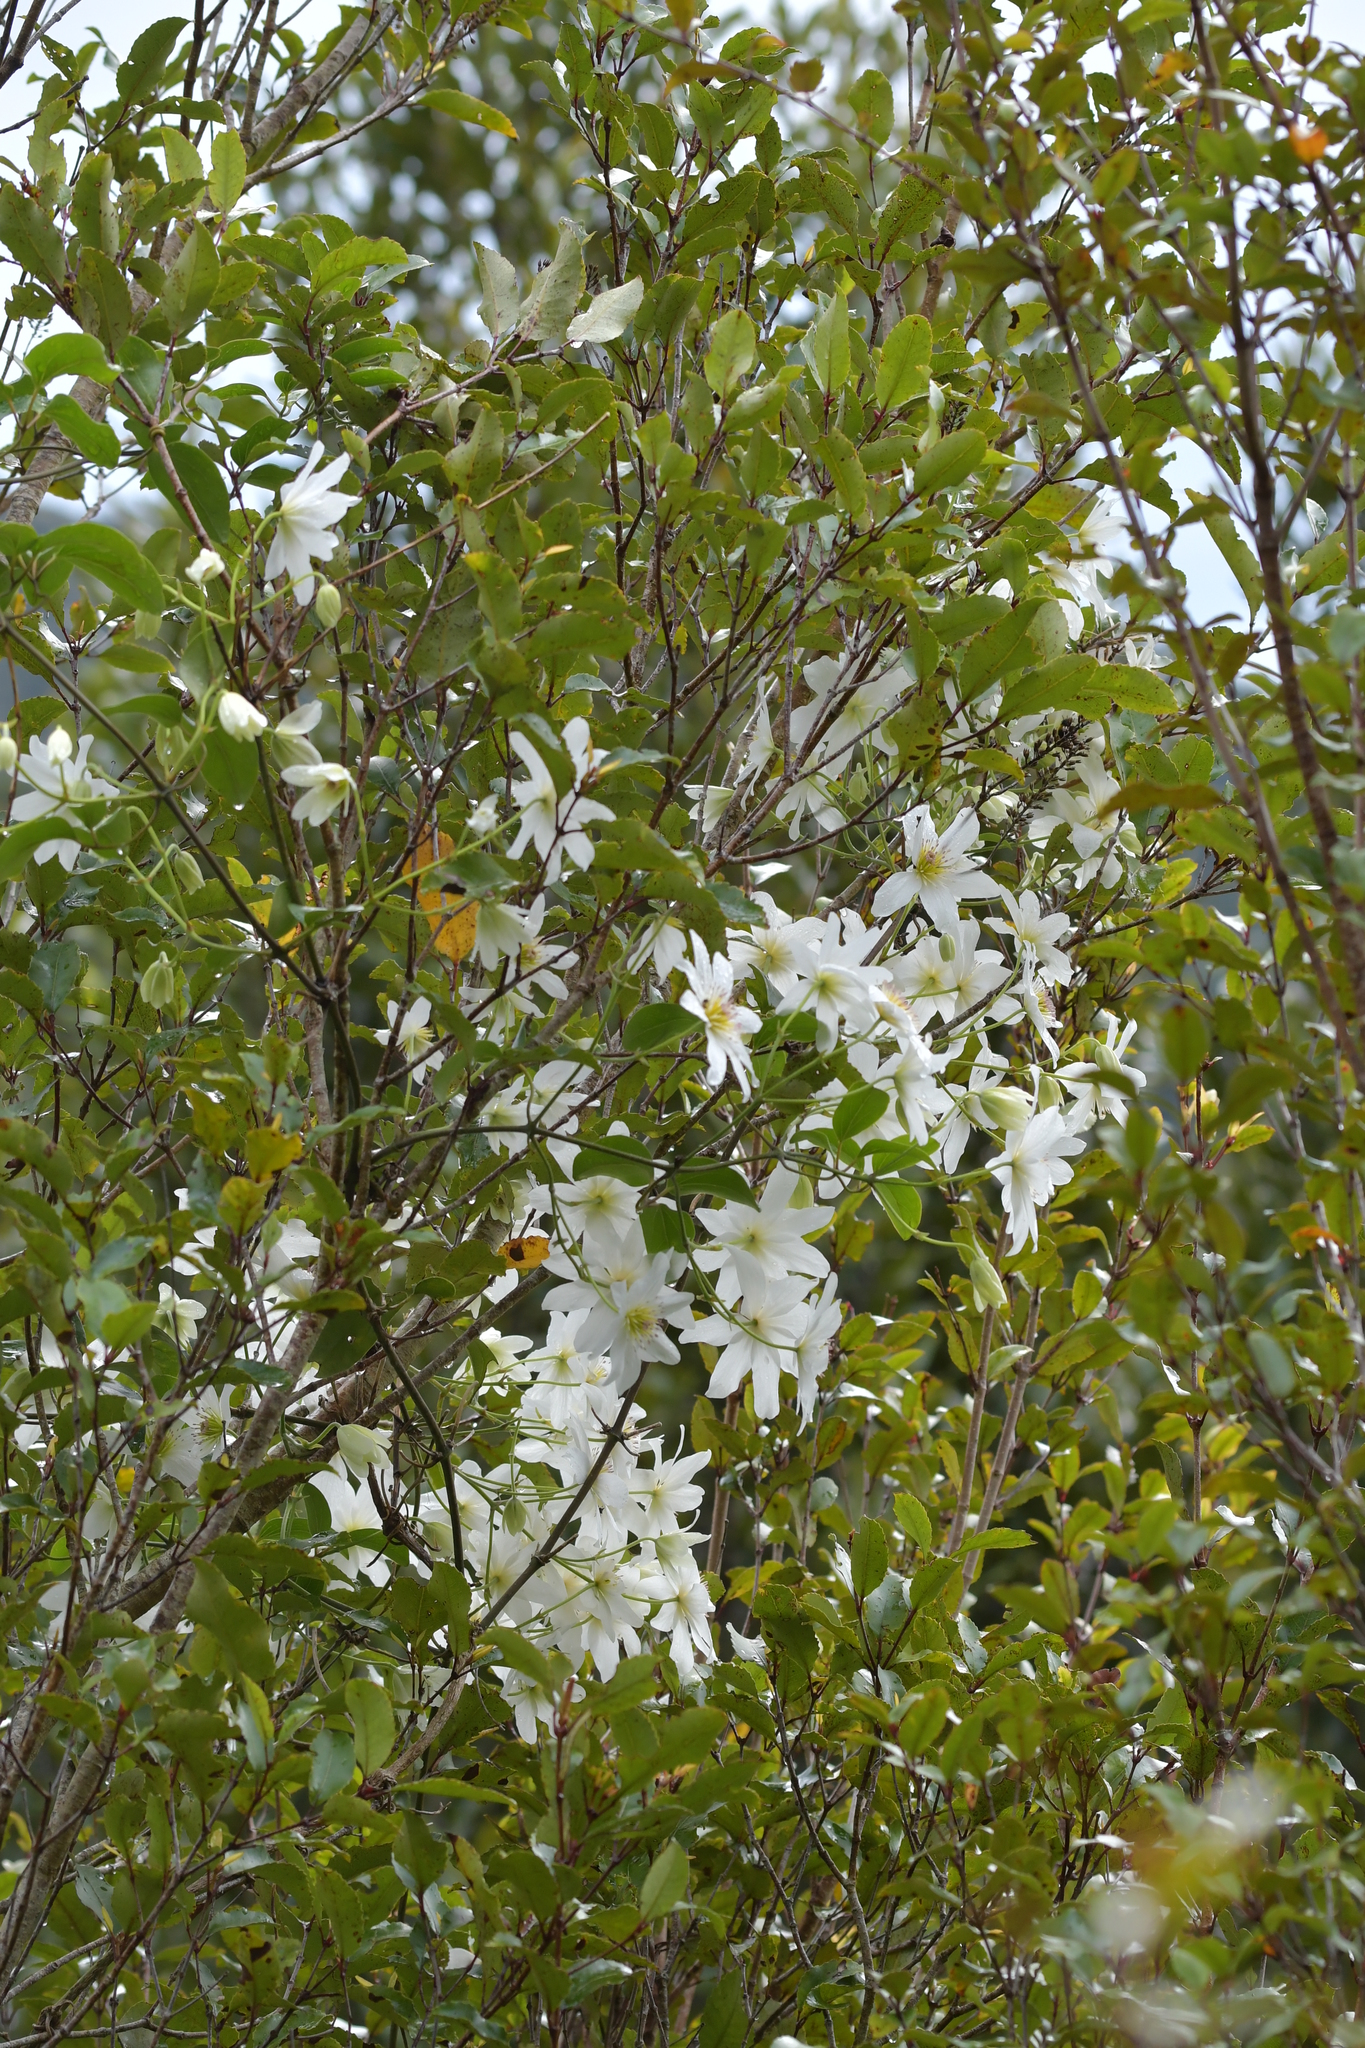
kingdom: Plantae
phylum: Tracheophyta
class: Magnoliopsida
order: Ranunculales
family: Ranunculaceae
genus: Clematis
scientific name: Clematis paniculata
